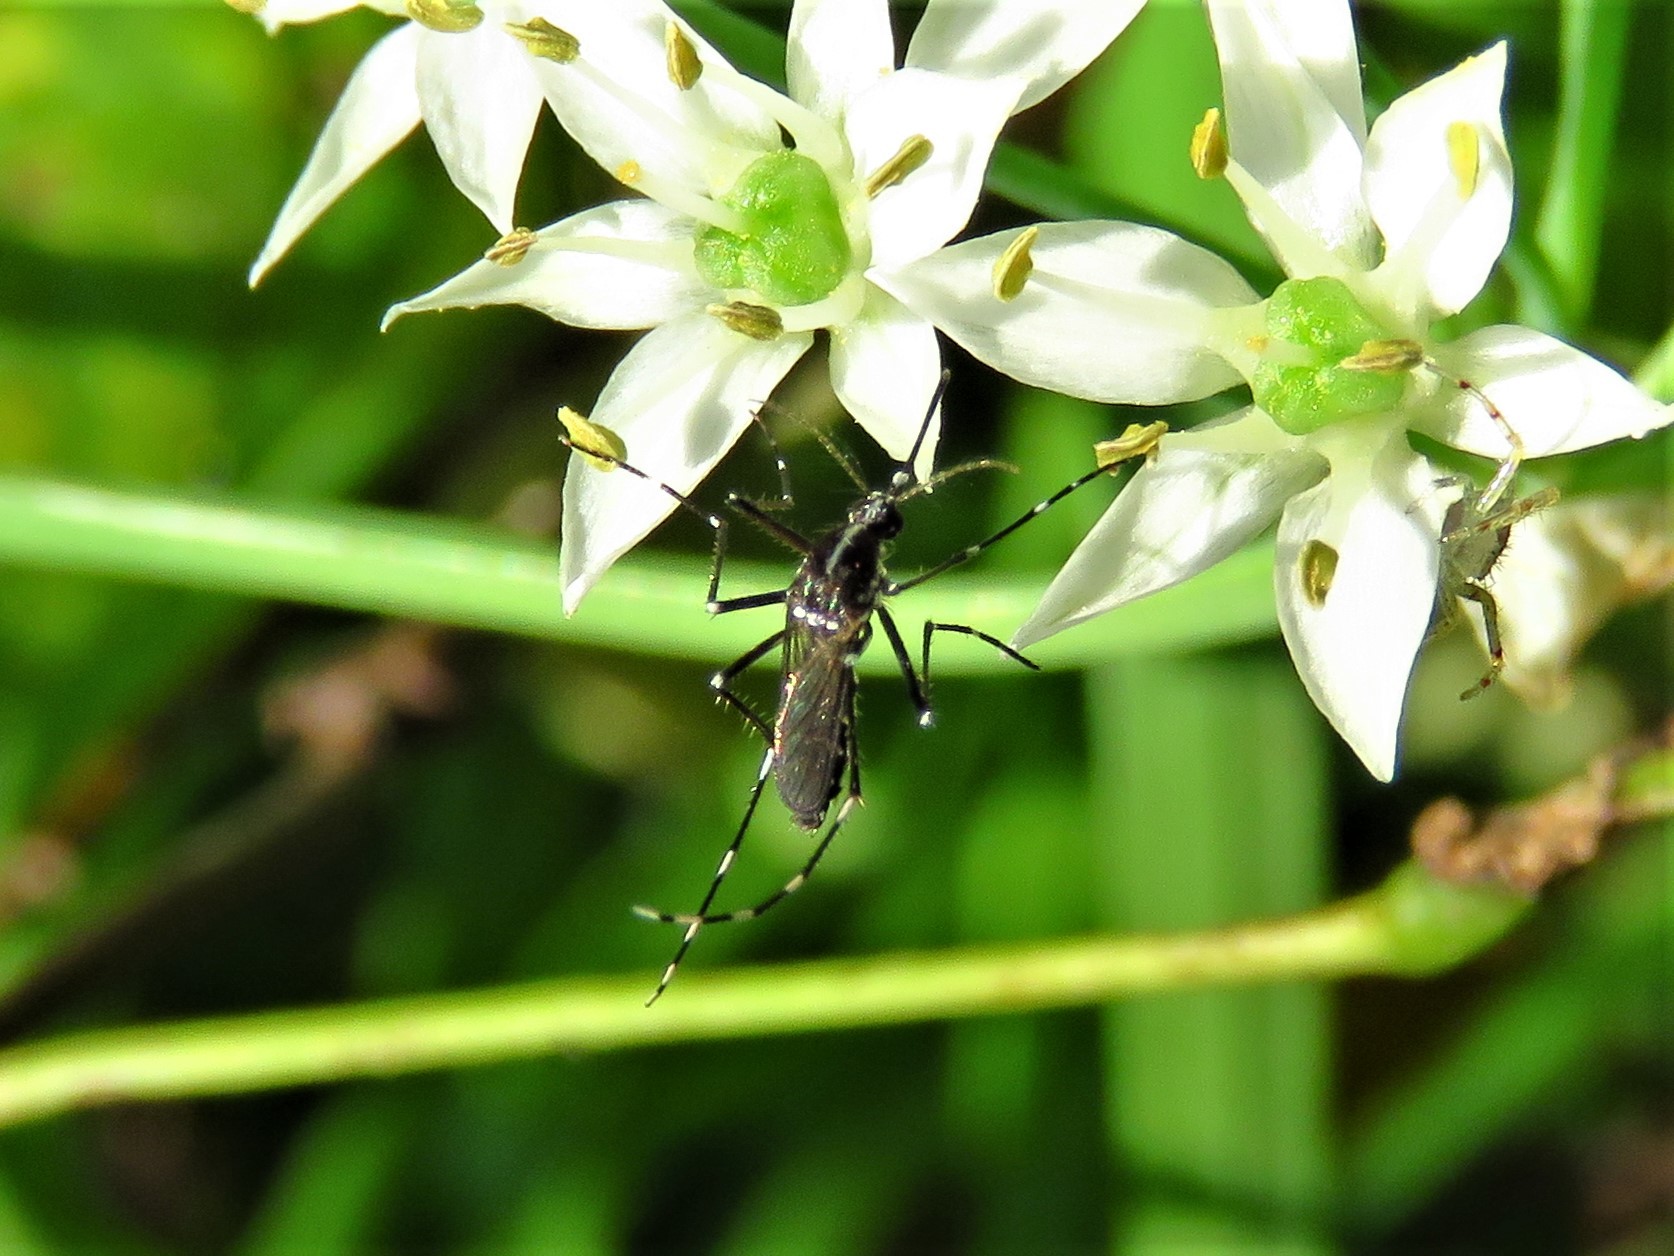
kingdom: Animalia
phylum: Arthropoda
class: Insecta
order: Diptera
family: Culicidae
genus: Aedes
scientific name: Aedes albopictus
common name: Tiger mosquito
